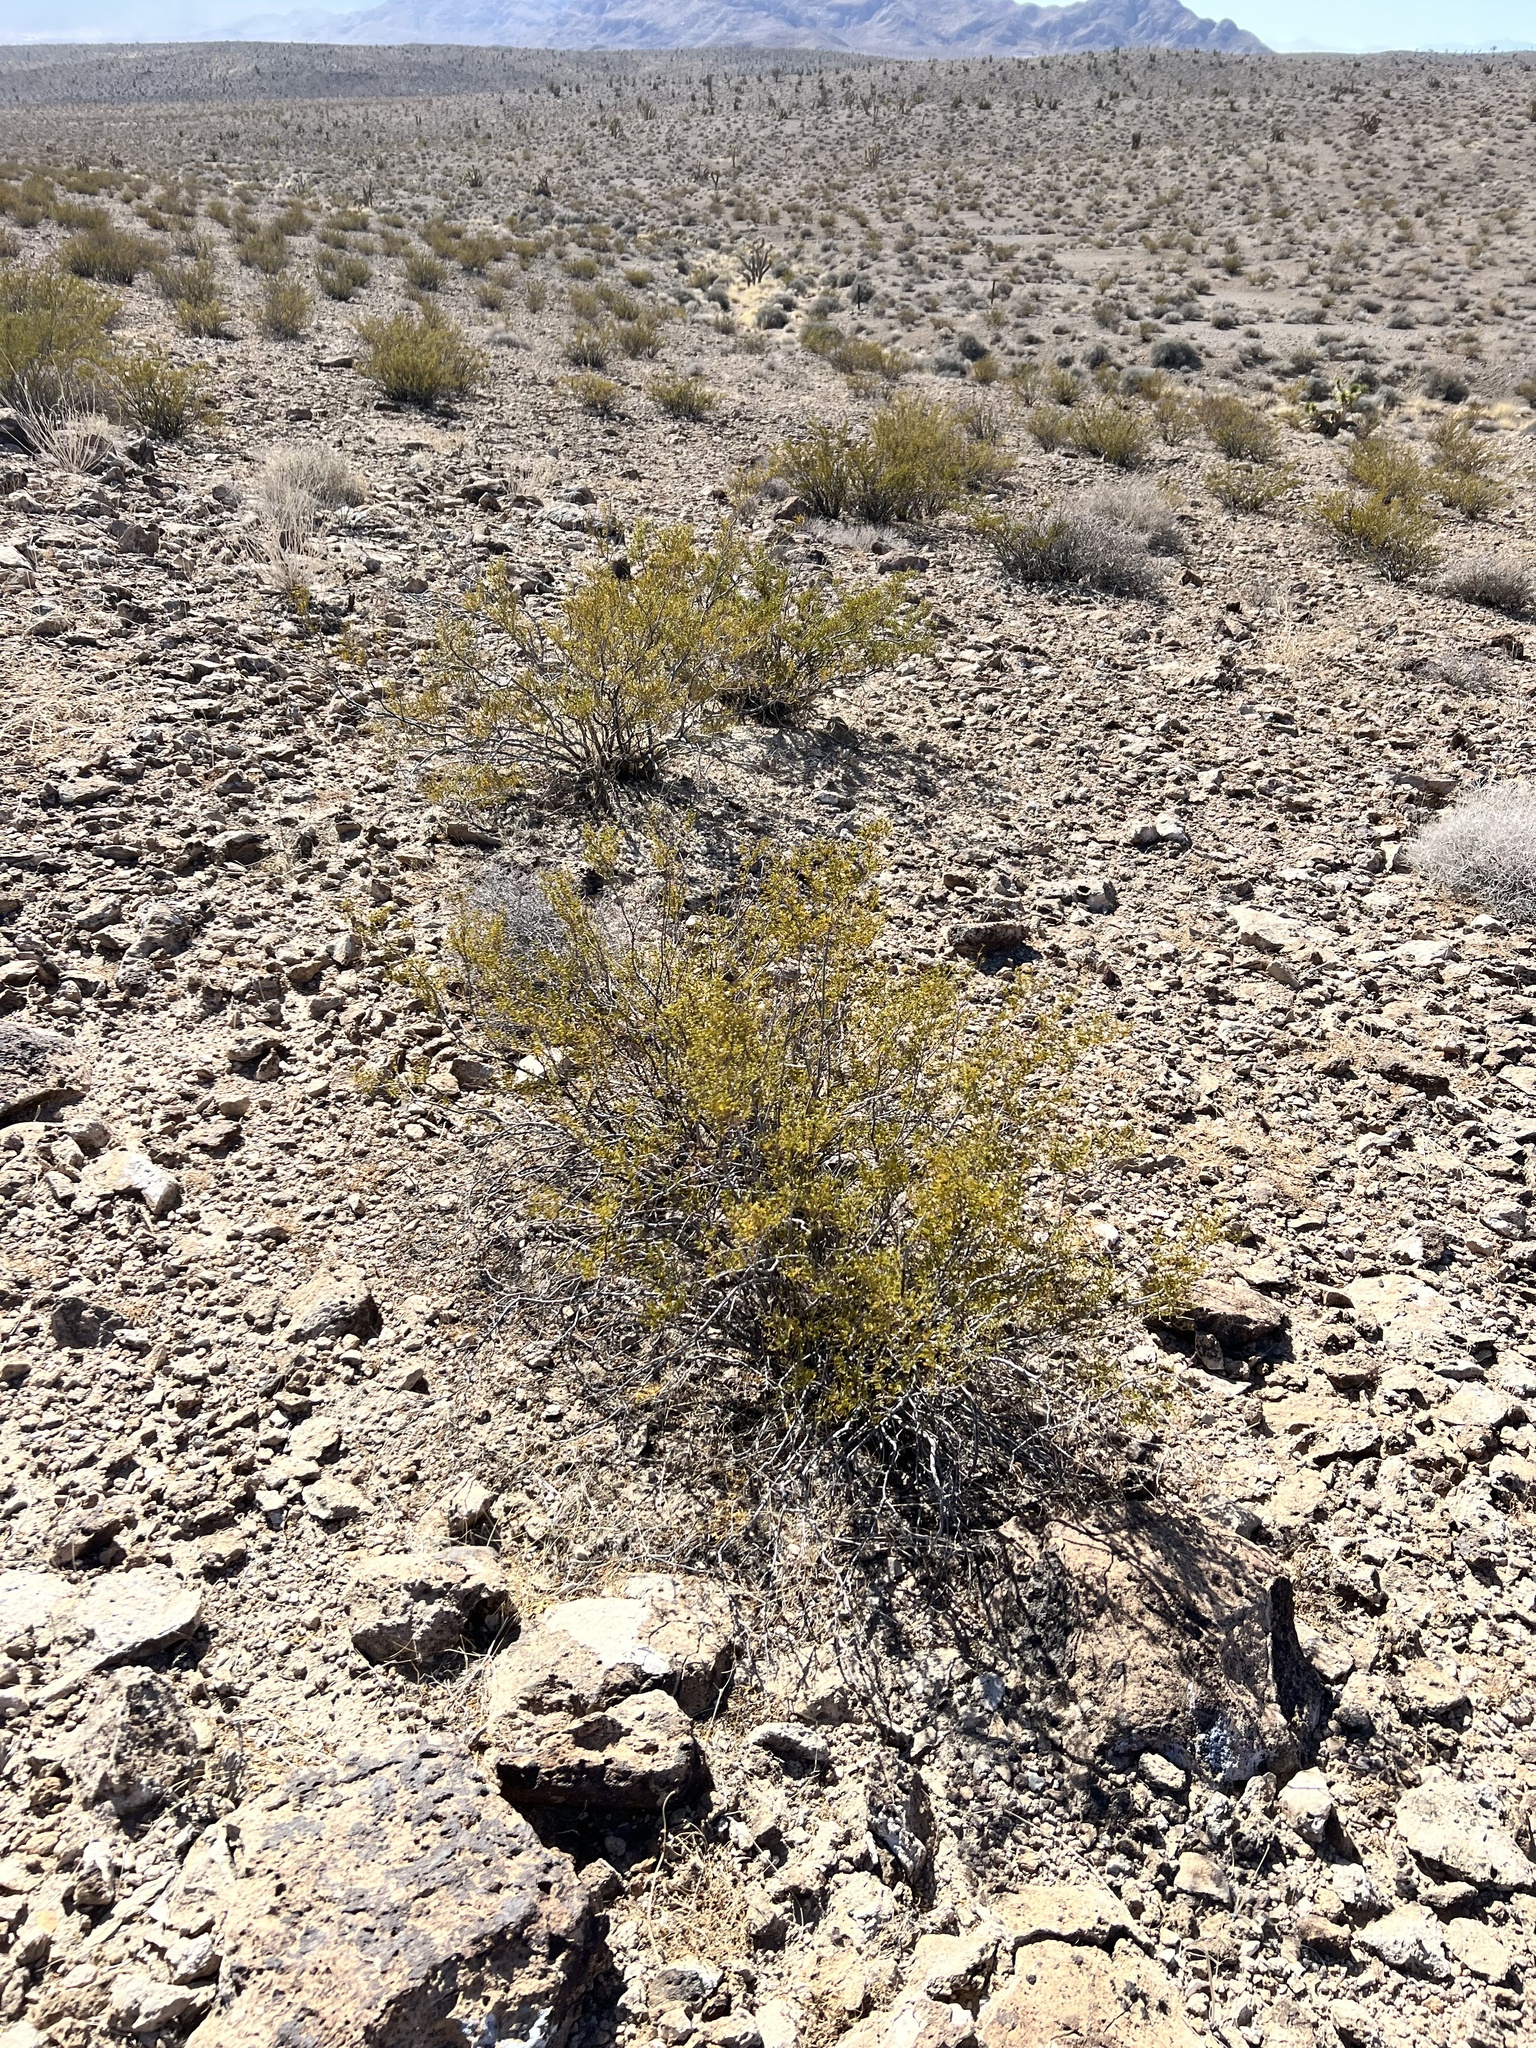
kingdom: Plantae
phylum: Tracheophyta
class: Magnoliopsida
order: Zygophyllales
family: Zygophyllaceae
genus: Larrea
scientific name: Larrea tridentata
